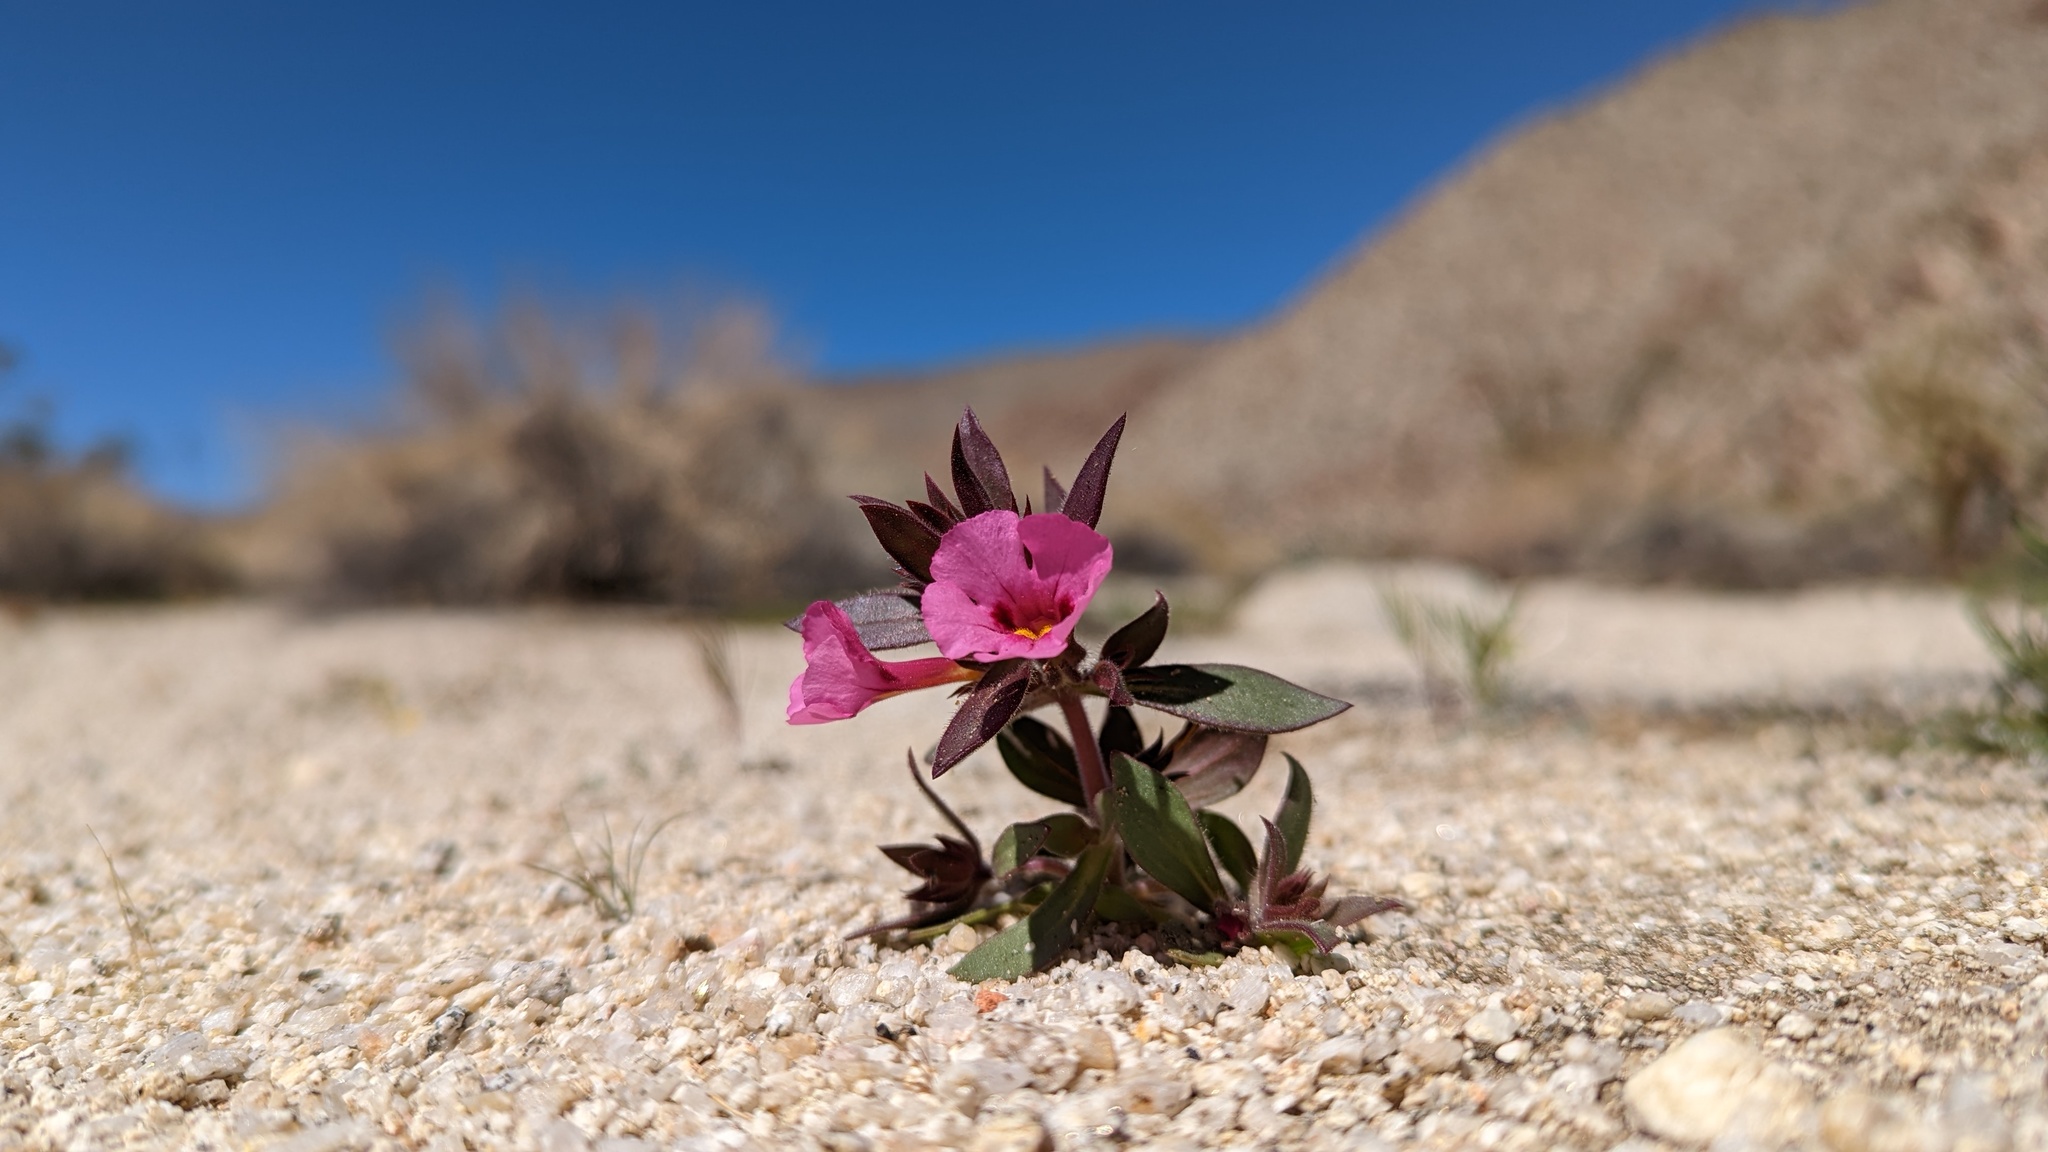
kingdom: Plantae
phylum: Tracheophyta
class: Magnoliopsida
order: Lamiales
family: Phrymaceae
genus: Diplacus
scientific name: Diplacus bigelovii
